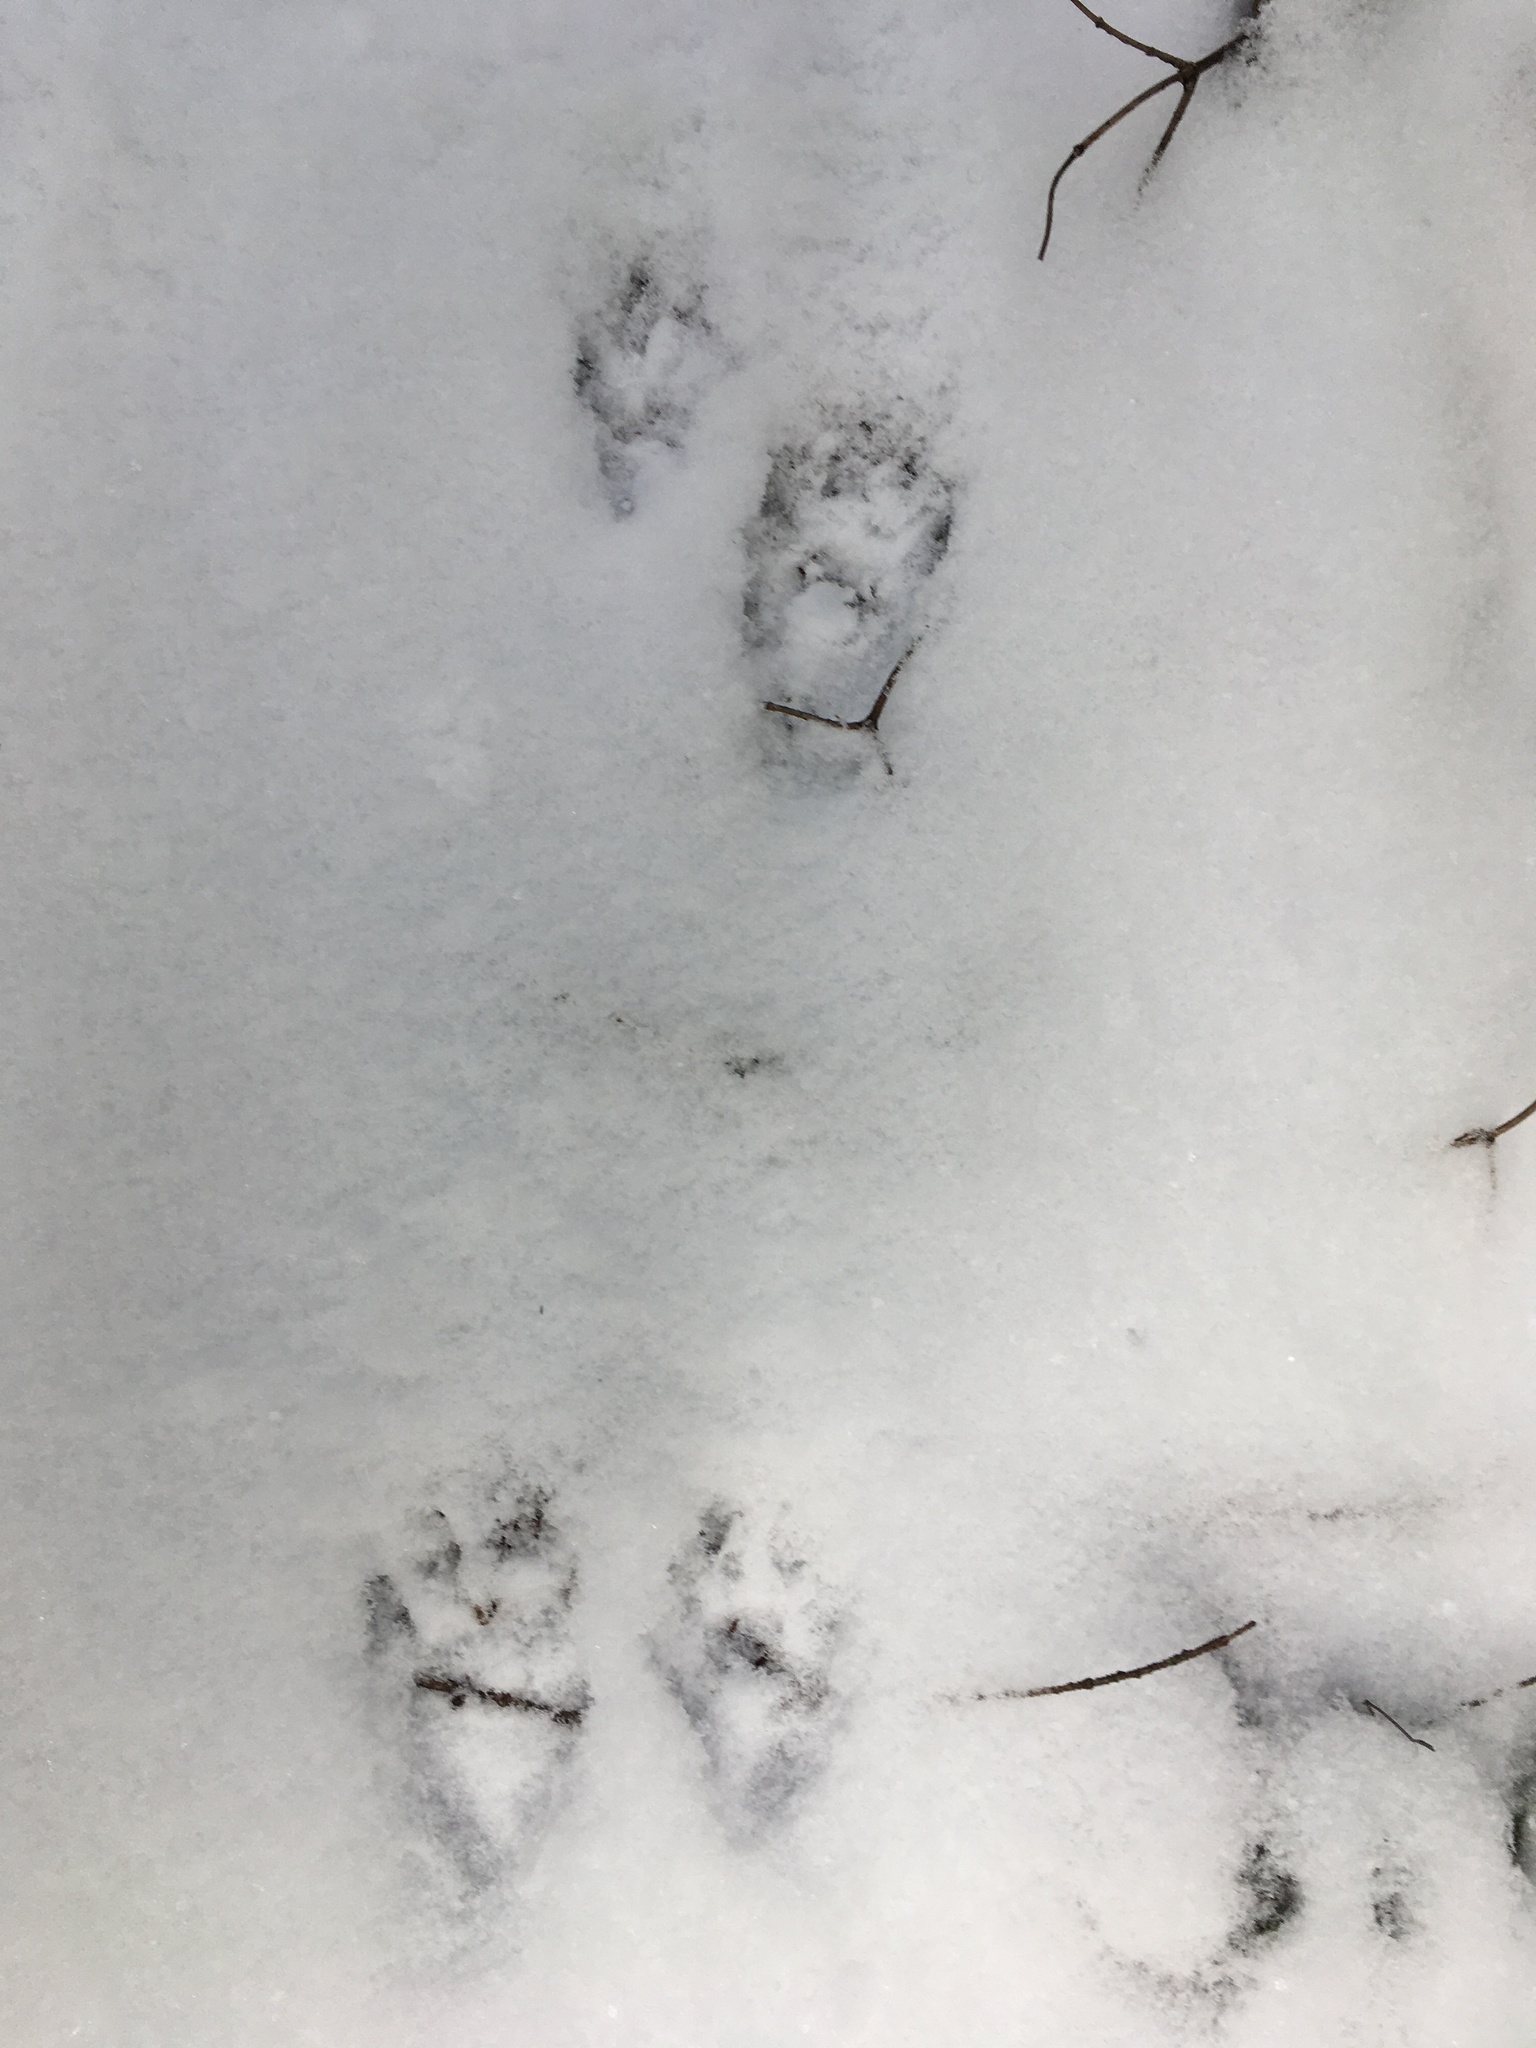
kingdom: Animalia
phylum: Chordata
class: Mammalia
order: Carnivora
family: Procyonidae
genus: Procyon
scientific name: Procyon lotor
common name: Raccoon
